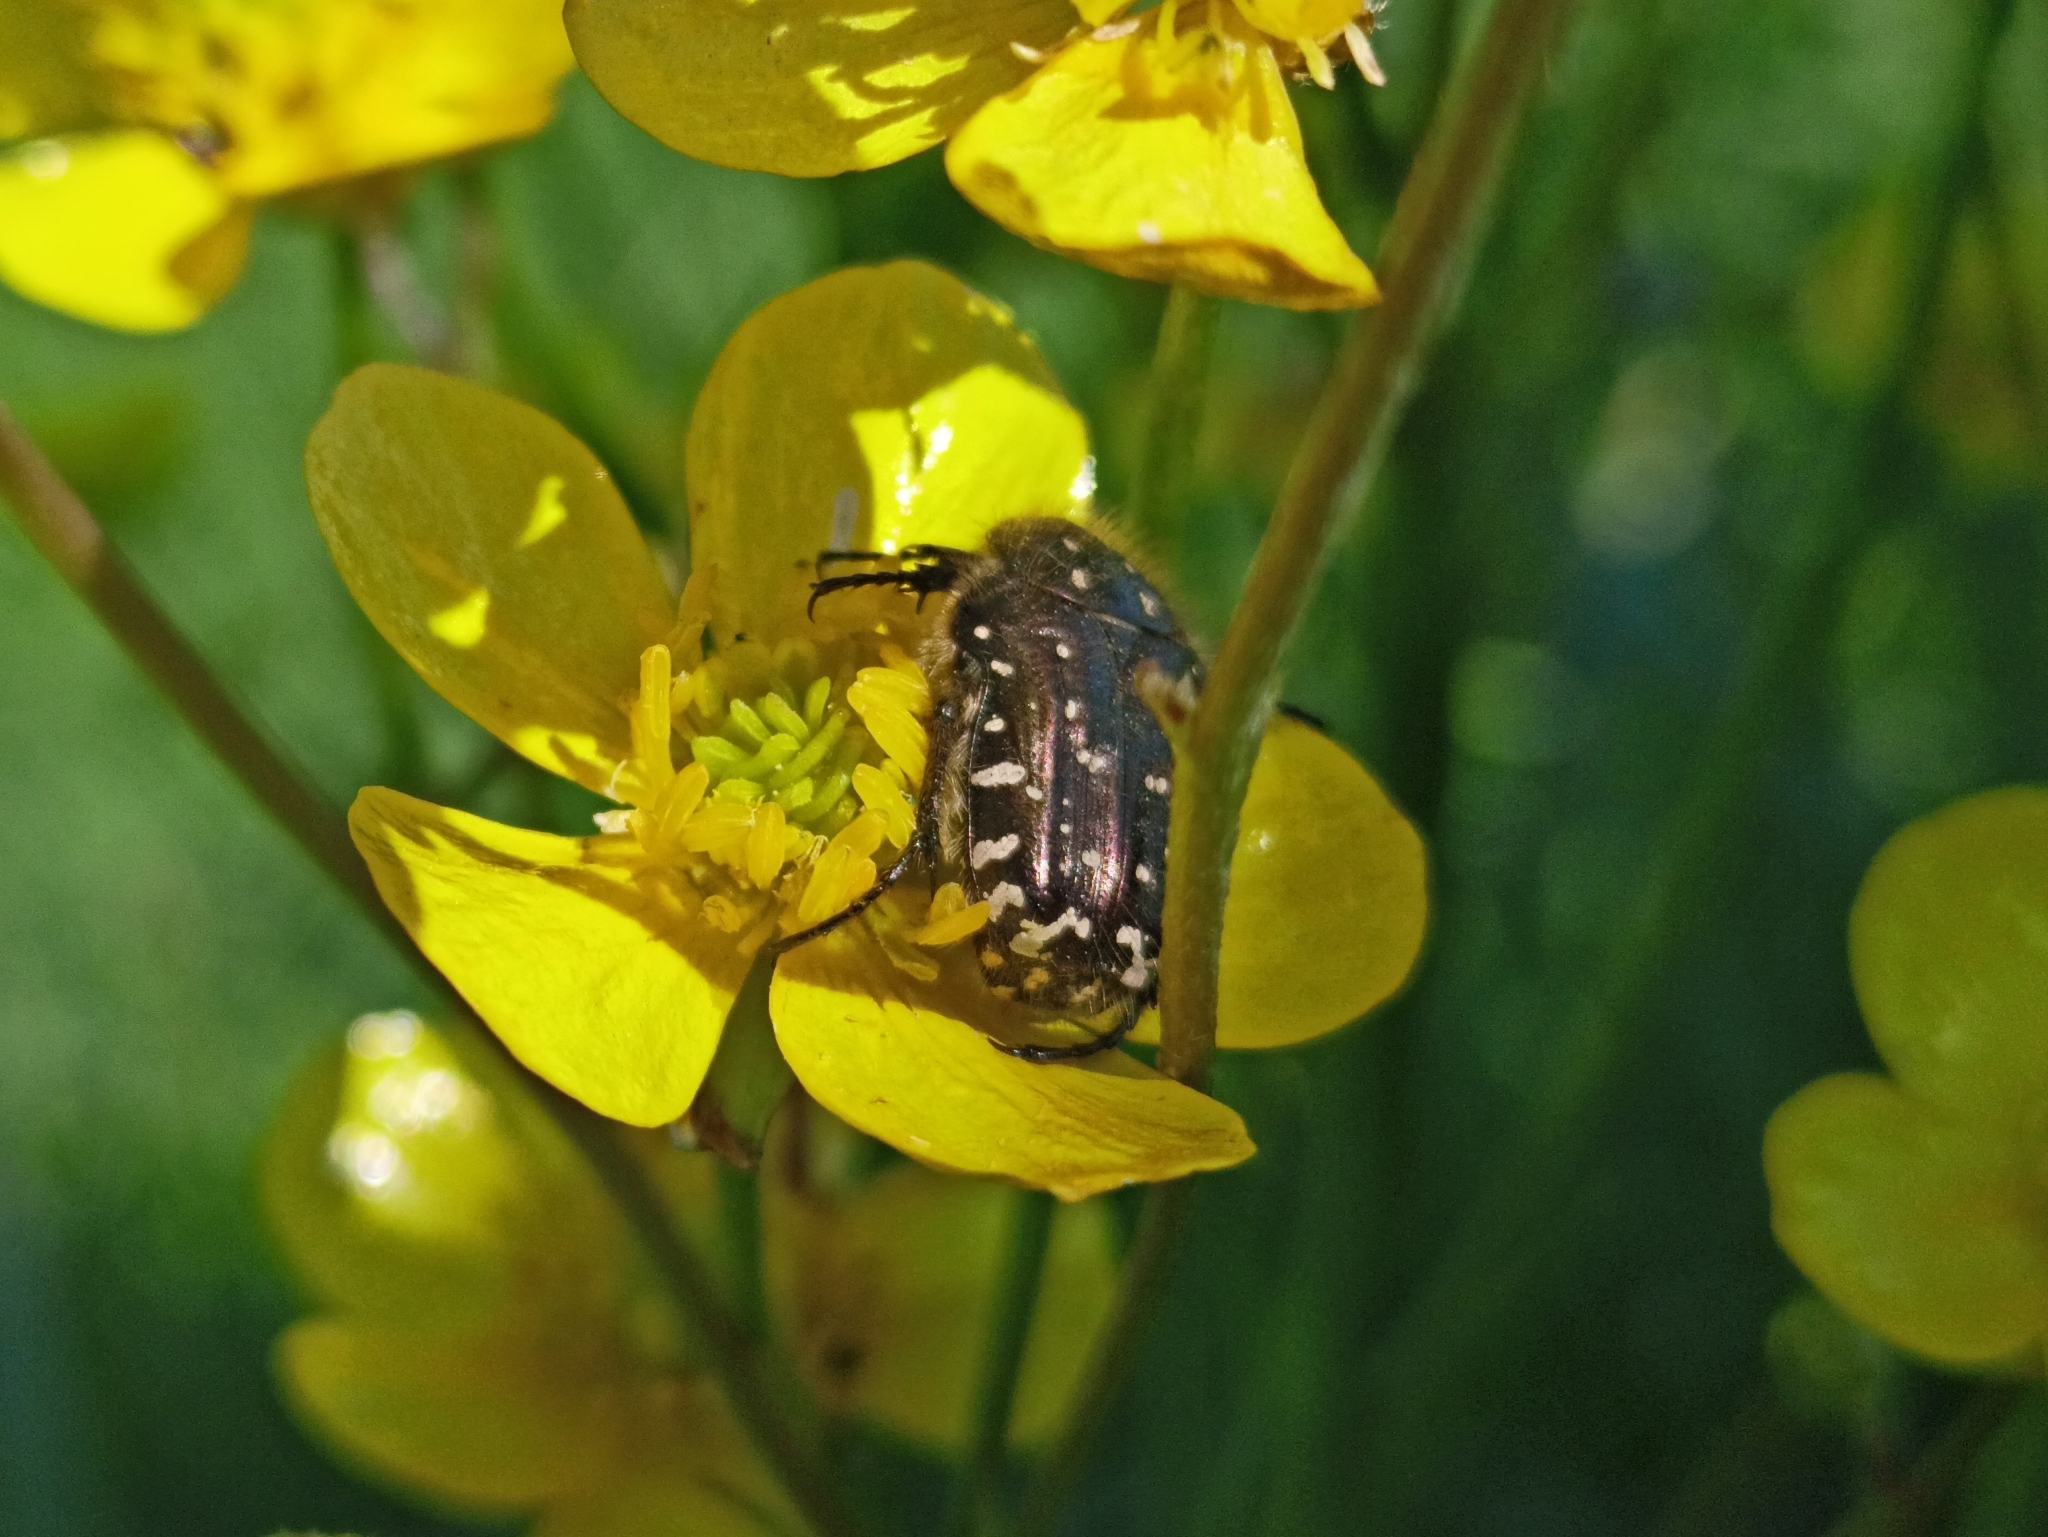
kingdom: Animalia
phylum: Arthropoda
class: Insecta
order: Coleoptera
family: Scarabaeidae
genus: Oxythyrea
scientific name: Oxythyrea funesta
